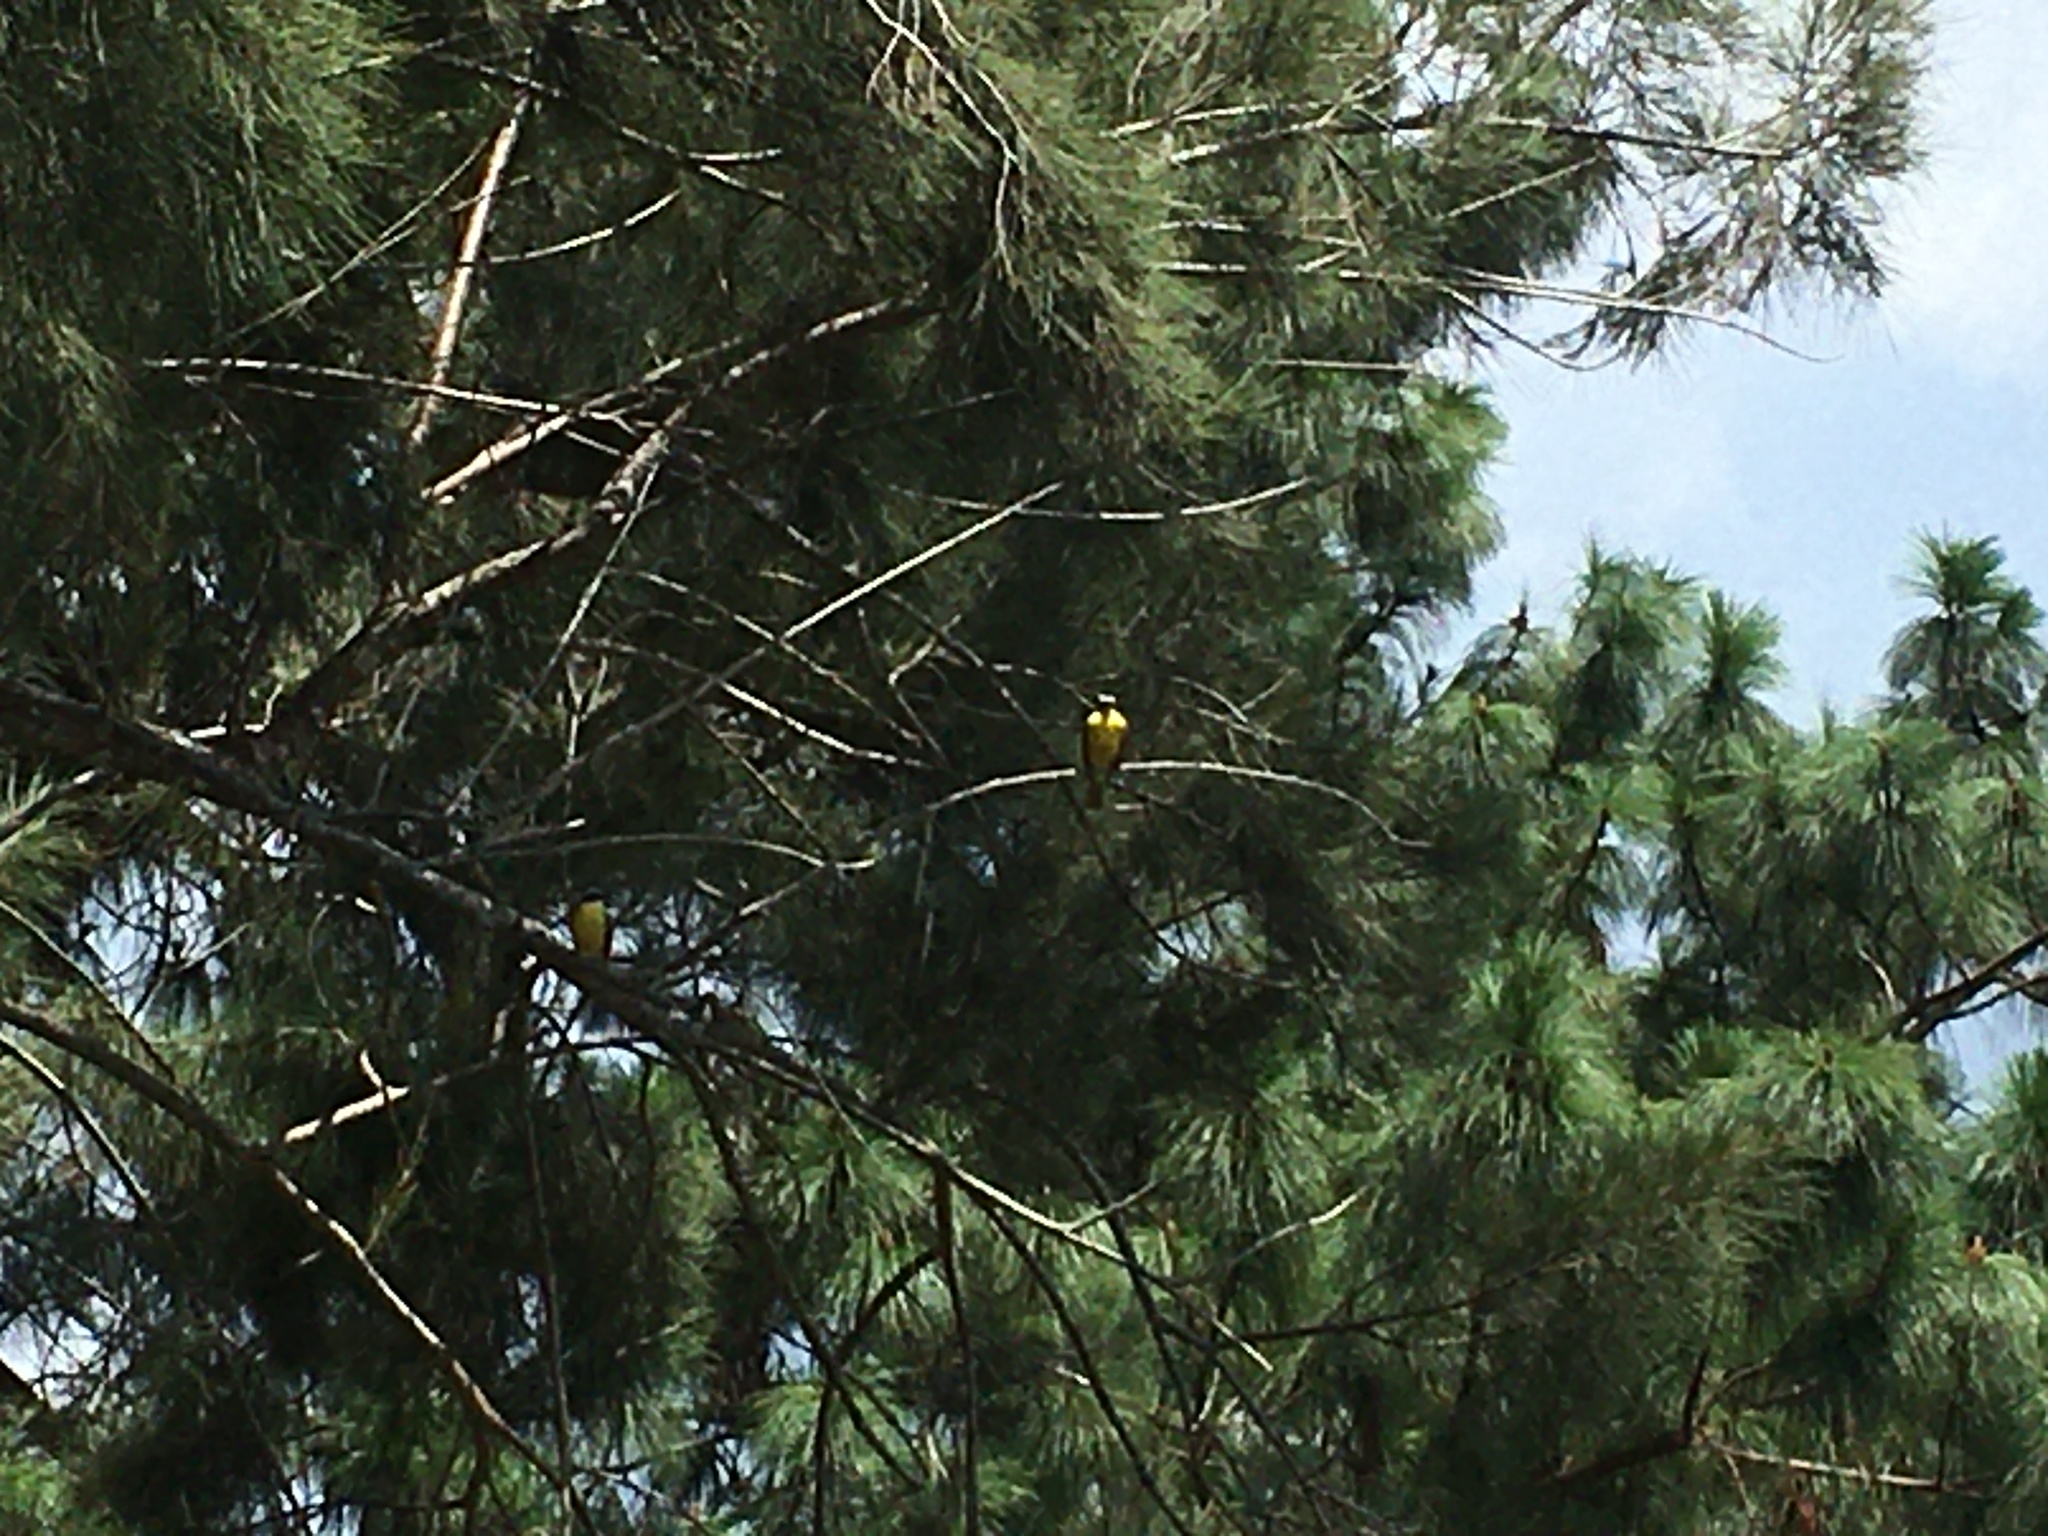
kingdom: Animalia
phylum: Chordata
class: Aves
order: Passeriformes
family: Tyrannidae
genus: Pitangus
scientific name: Pitangus sulphuratus
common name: Great kiskadee
